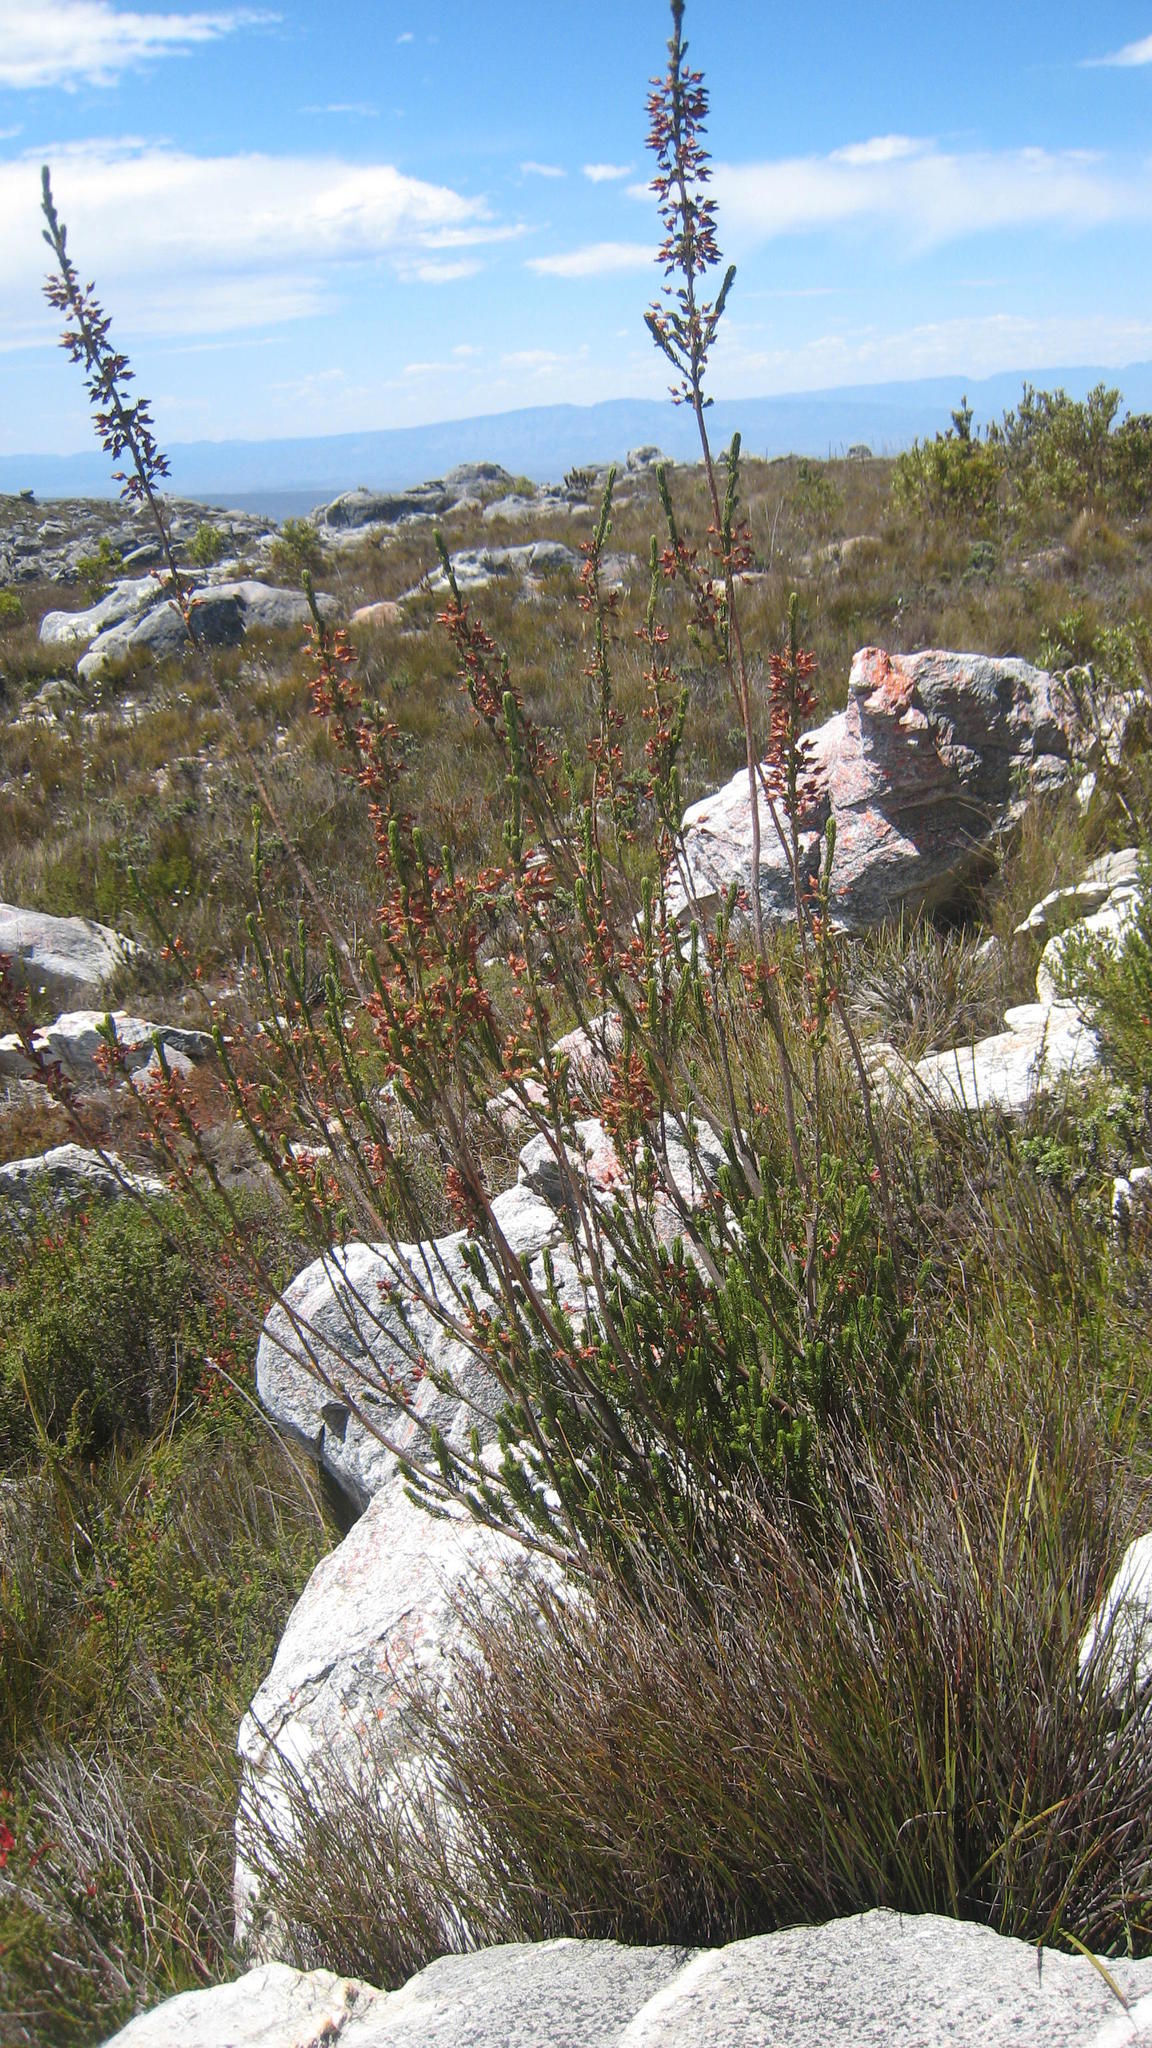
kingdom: Plantae
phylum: Tracheophyta
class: Magnoliopsida
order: Ericales
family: Ericaceae
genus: Erica
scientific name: Erica barrydalensis
